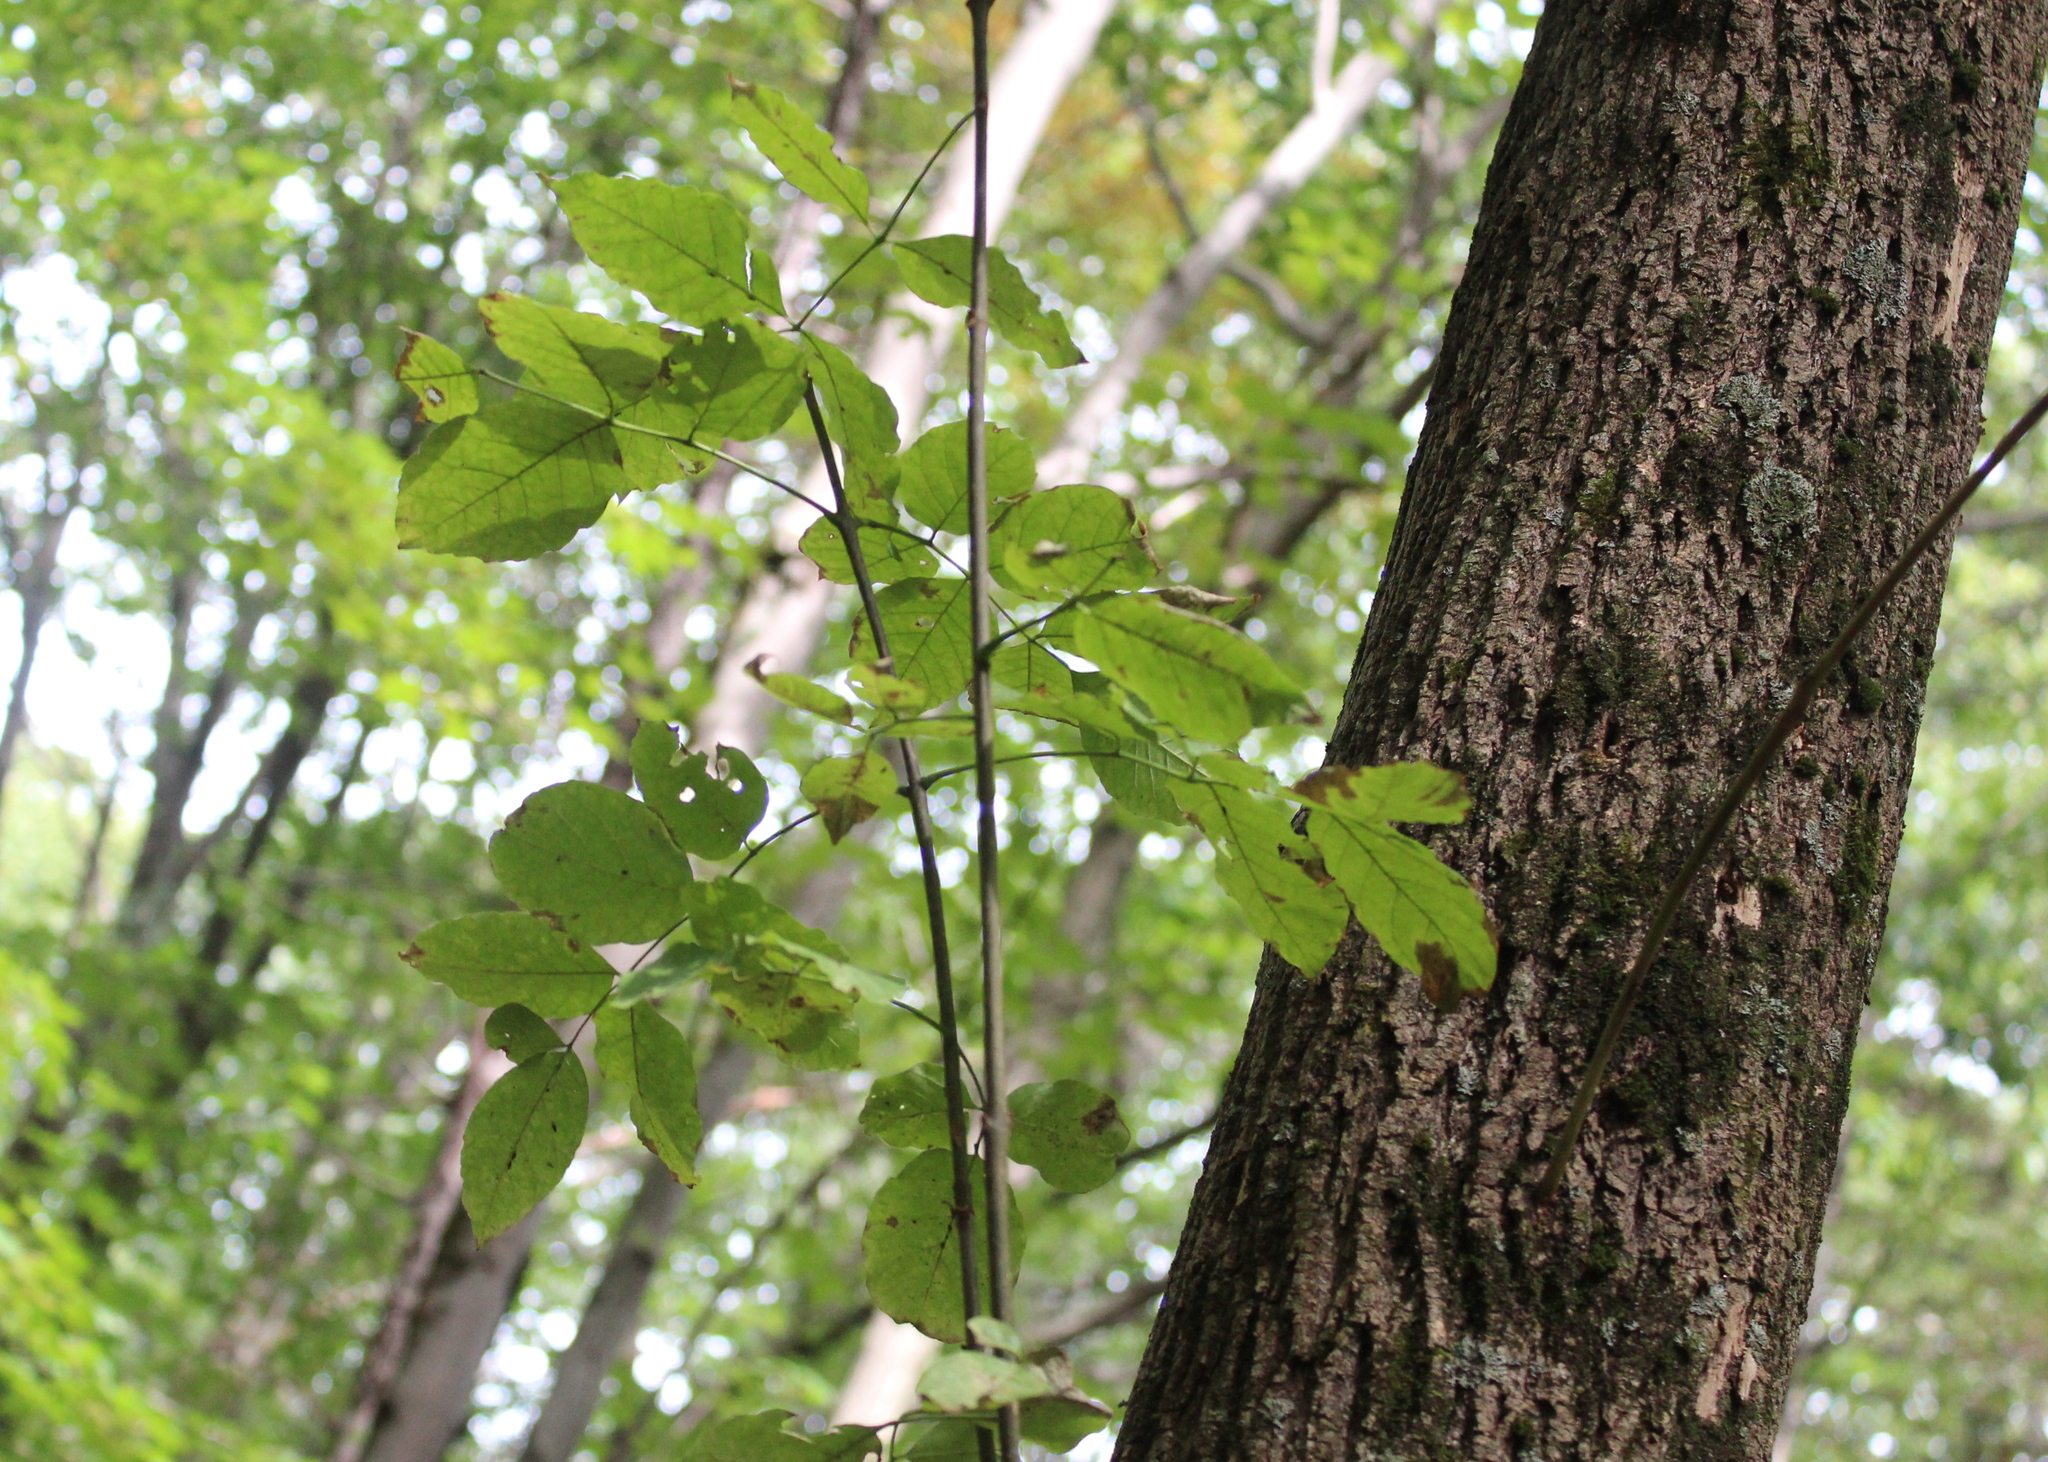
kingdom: Plantae
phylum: Tracheophyta
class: Magnoliopsida
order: Lamiales
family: Oleaceae
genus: Fraxinus
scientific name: Fraxinus americana
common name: White ash
